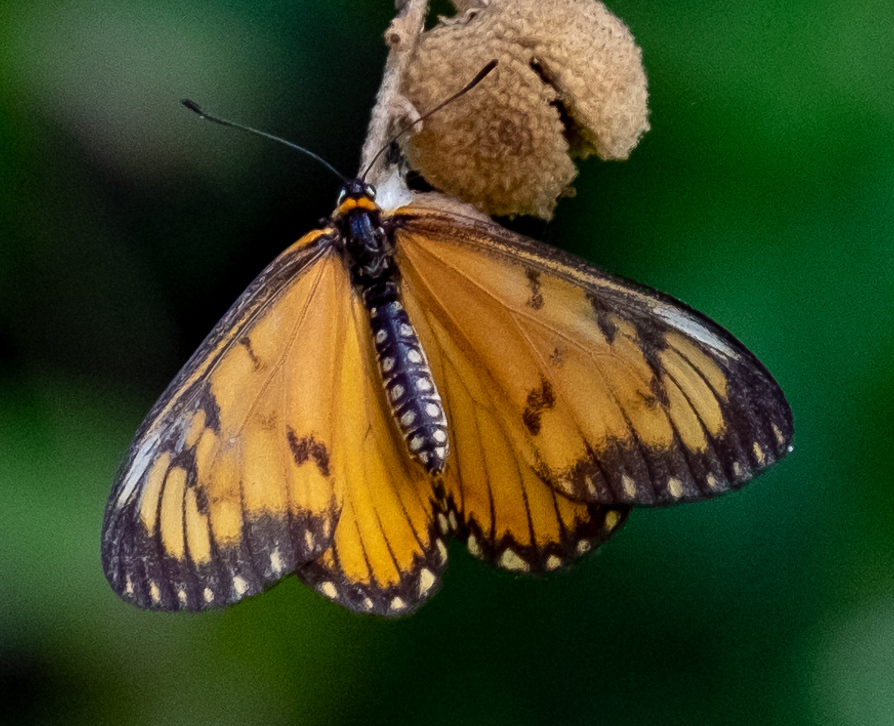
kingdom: Animalia
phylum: Arthropoda
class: Insecta
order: Lepidoptera
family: Nymphalidae
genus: Acraea
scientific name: Acraea Telchinia issoria
